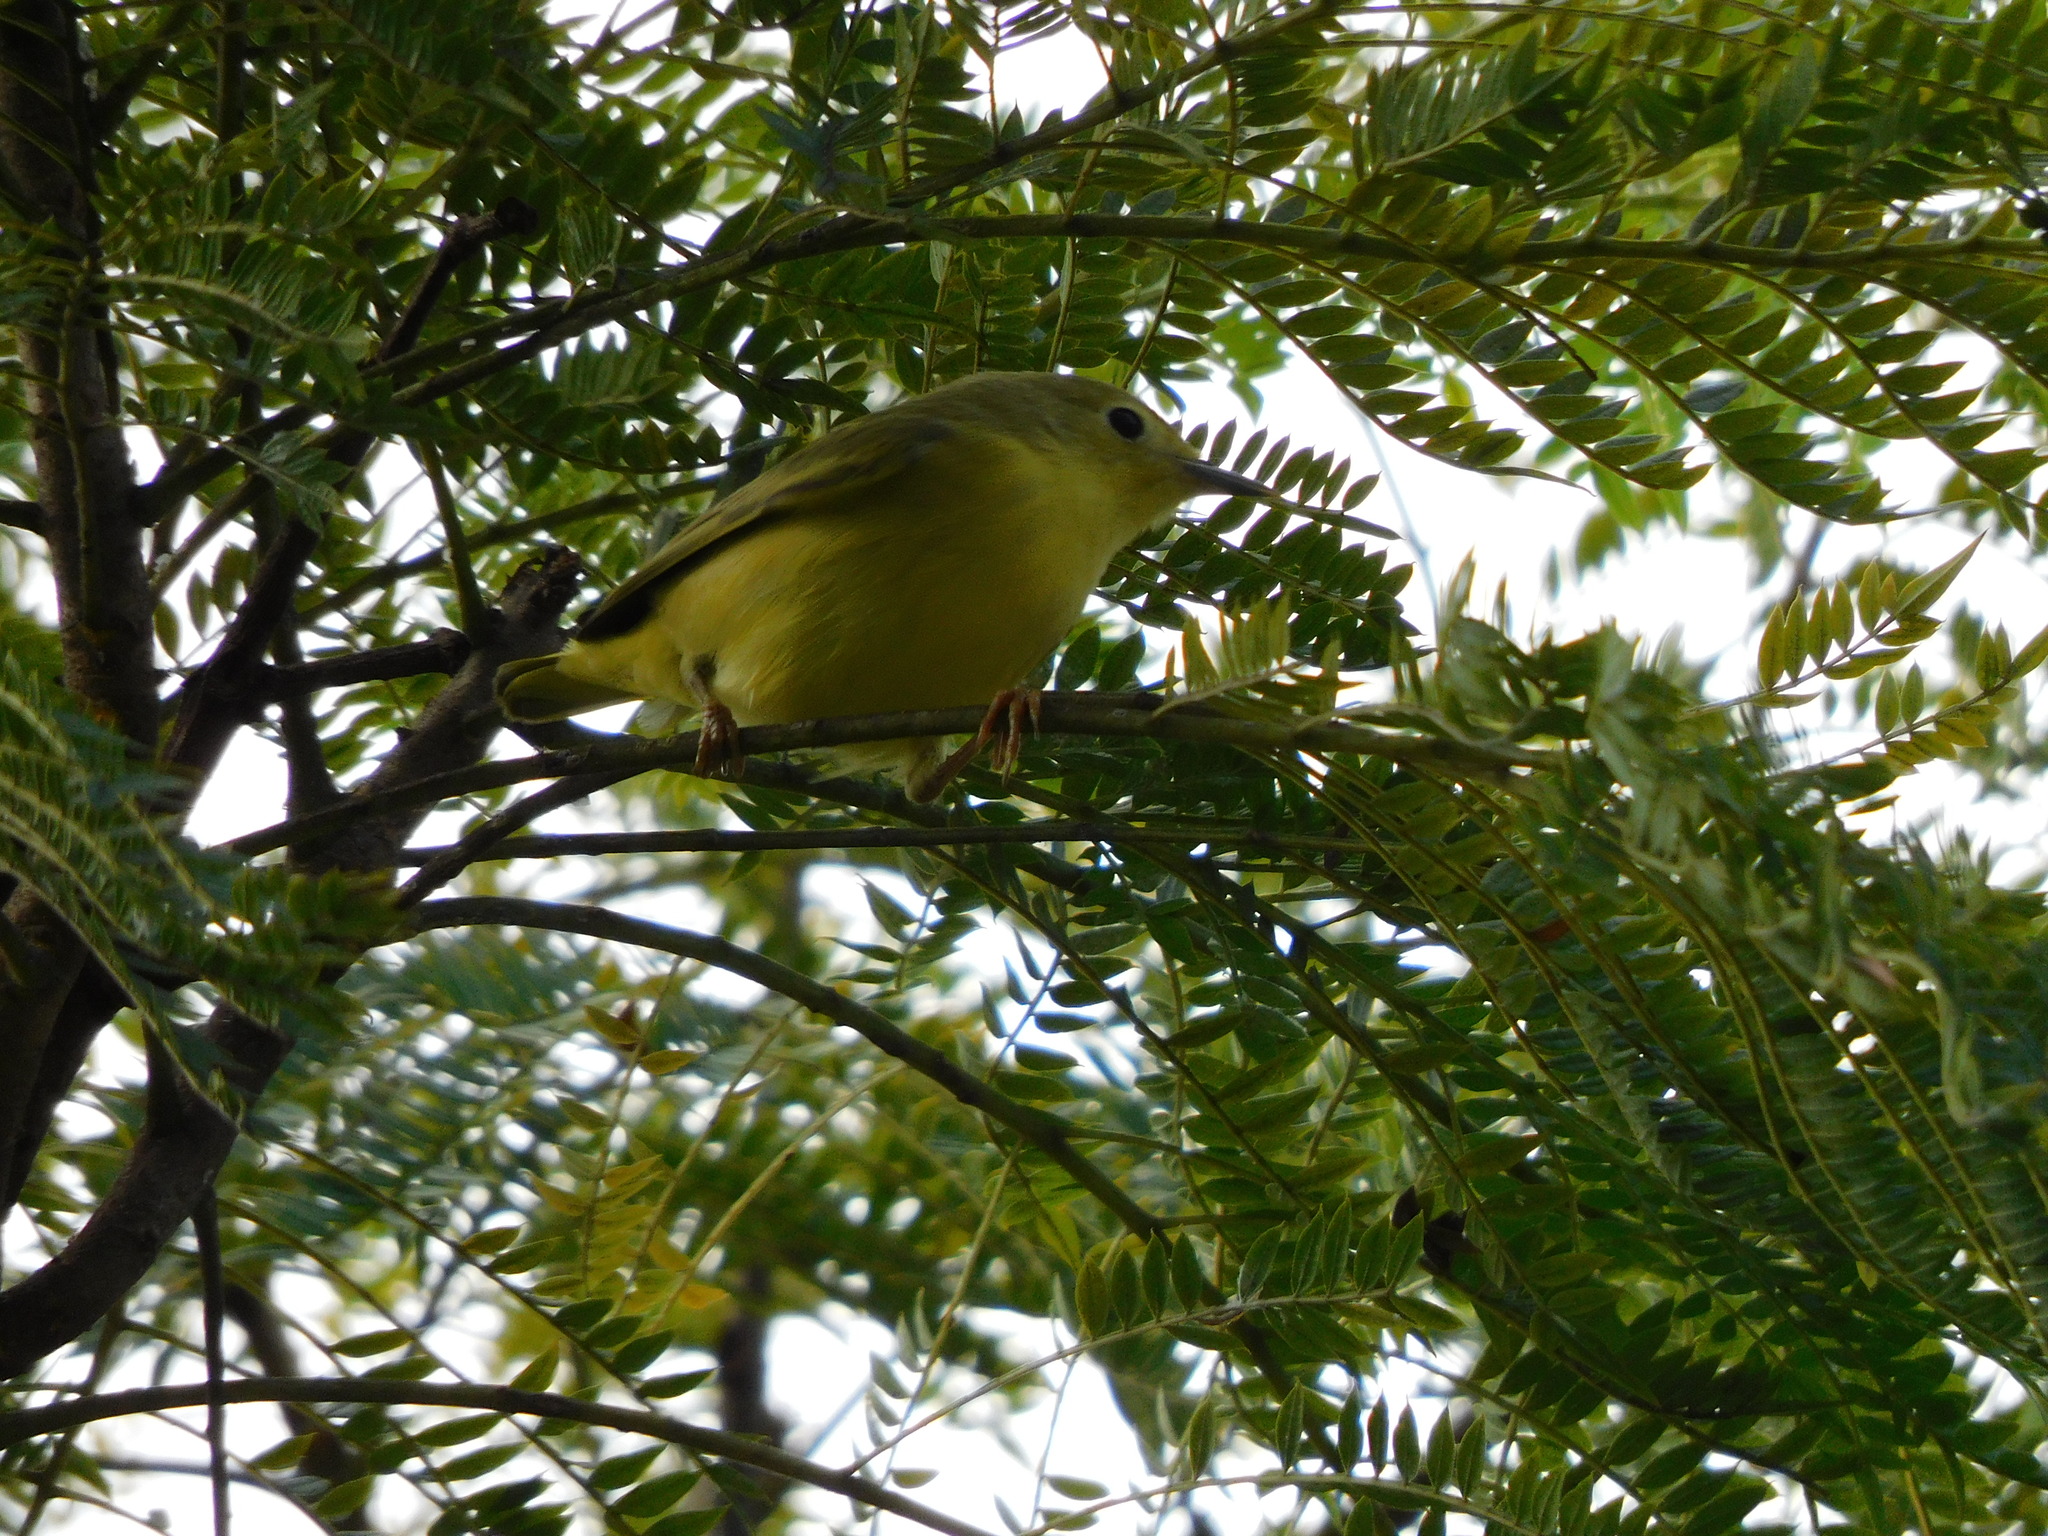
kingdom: Animalia
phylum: Chordata
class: Aves
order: Passeriformes
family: Parulidae
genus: Setophaga
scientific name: Setophaga petechia
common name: Yellow warbler
